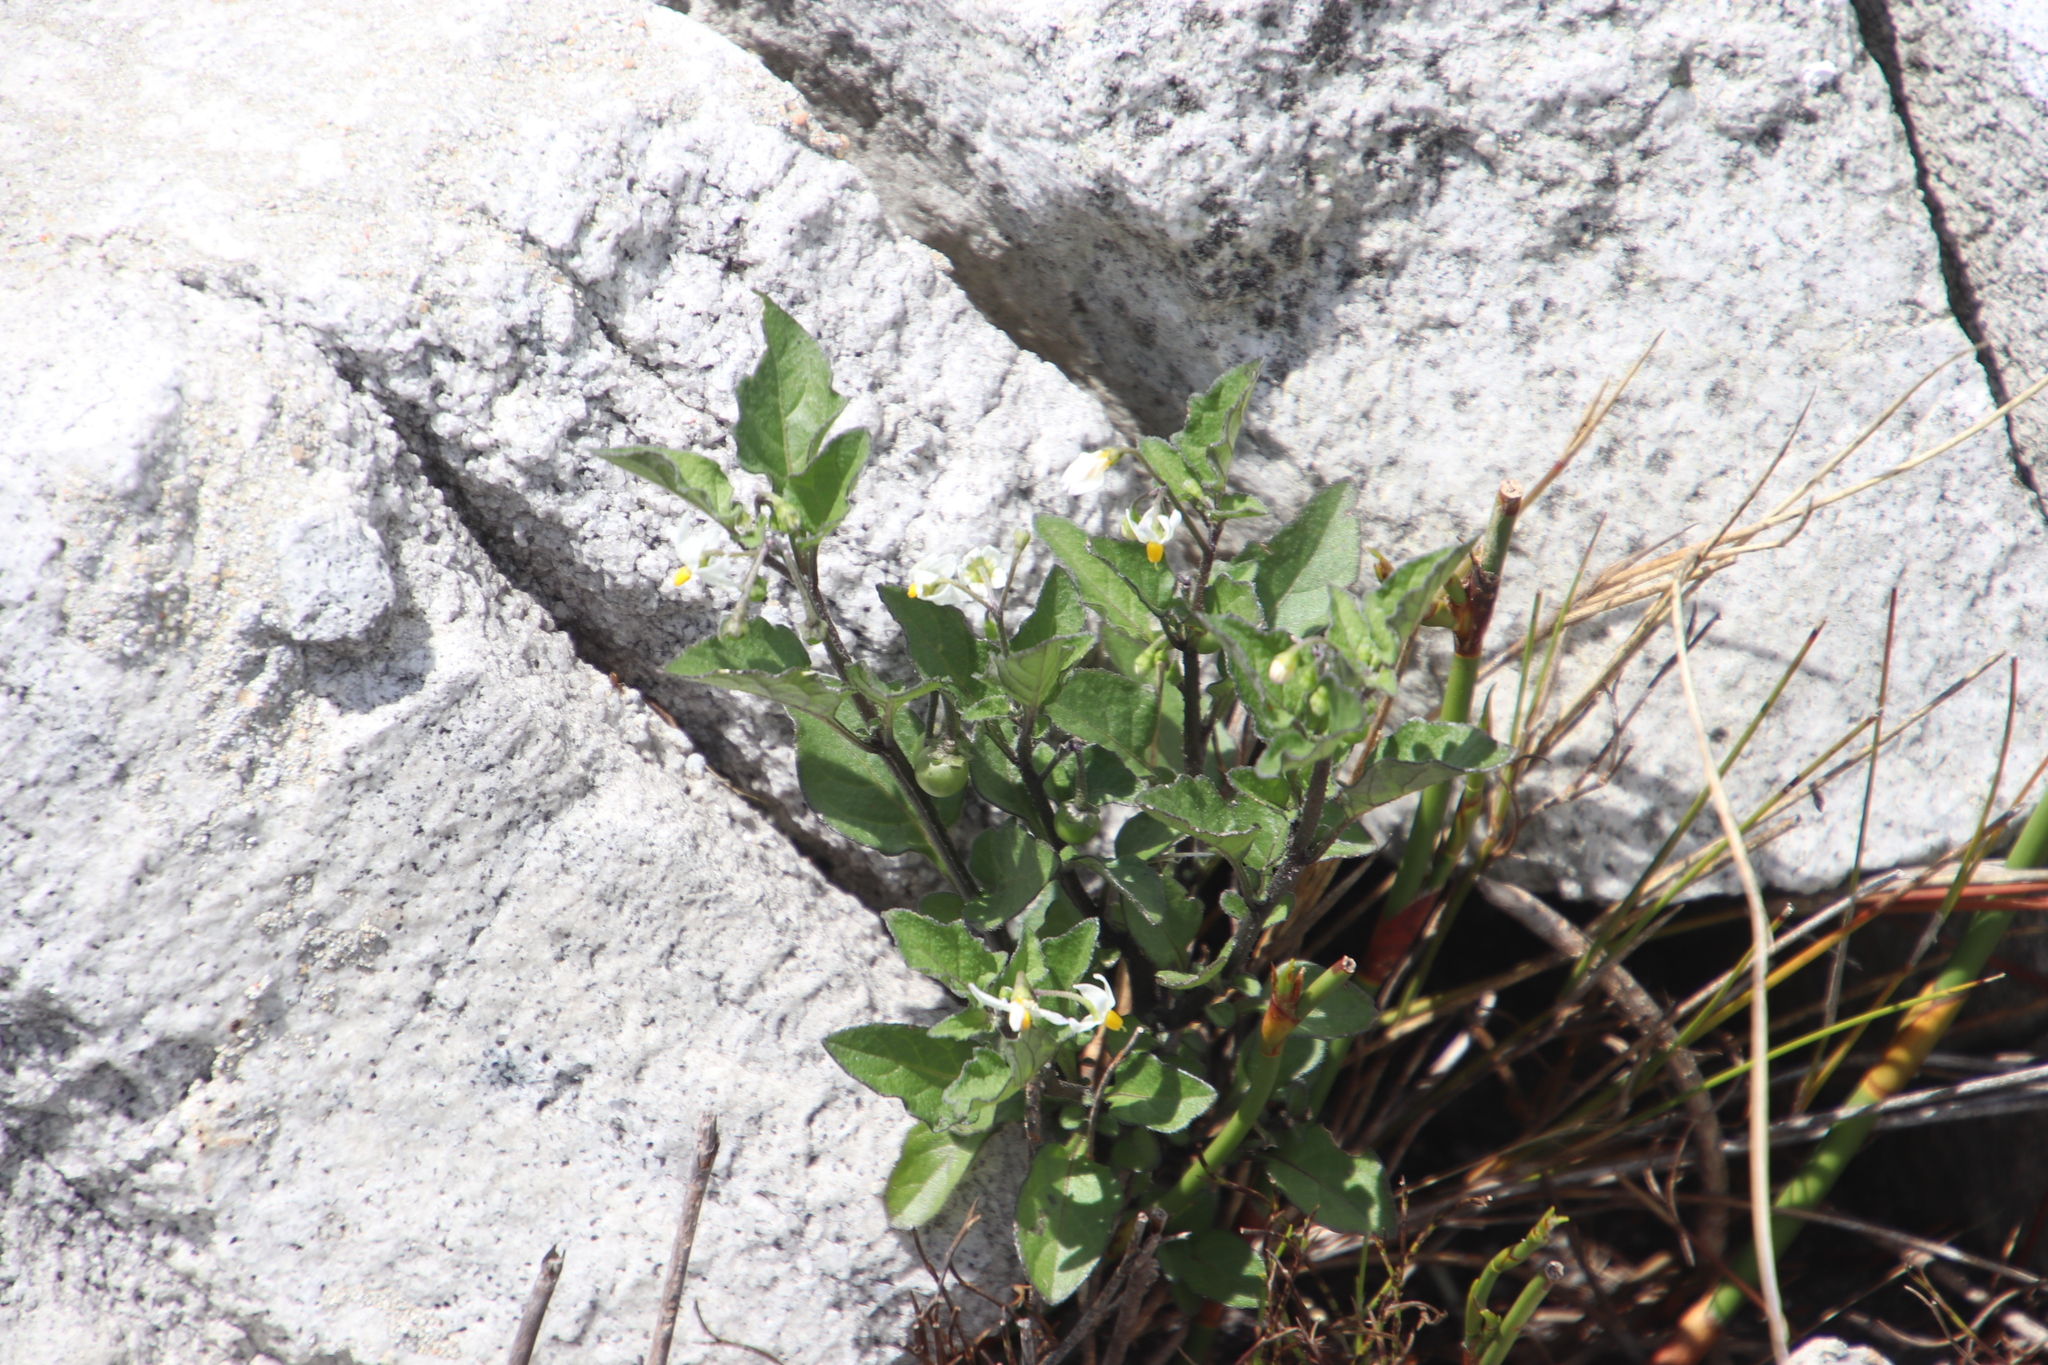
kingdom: Plantae
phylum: Tracheophyta
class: Magnoliopsida
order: Solanales
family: Solanaceae
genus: Solanum
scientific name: Solanum retroflexum
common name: Wonderberry
